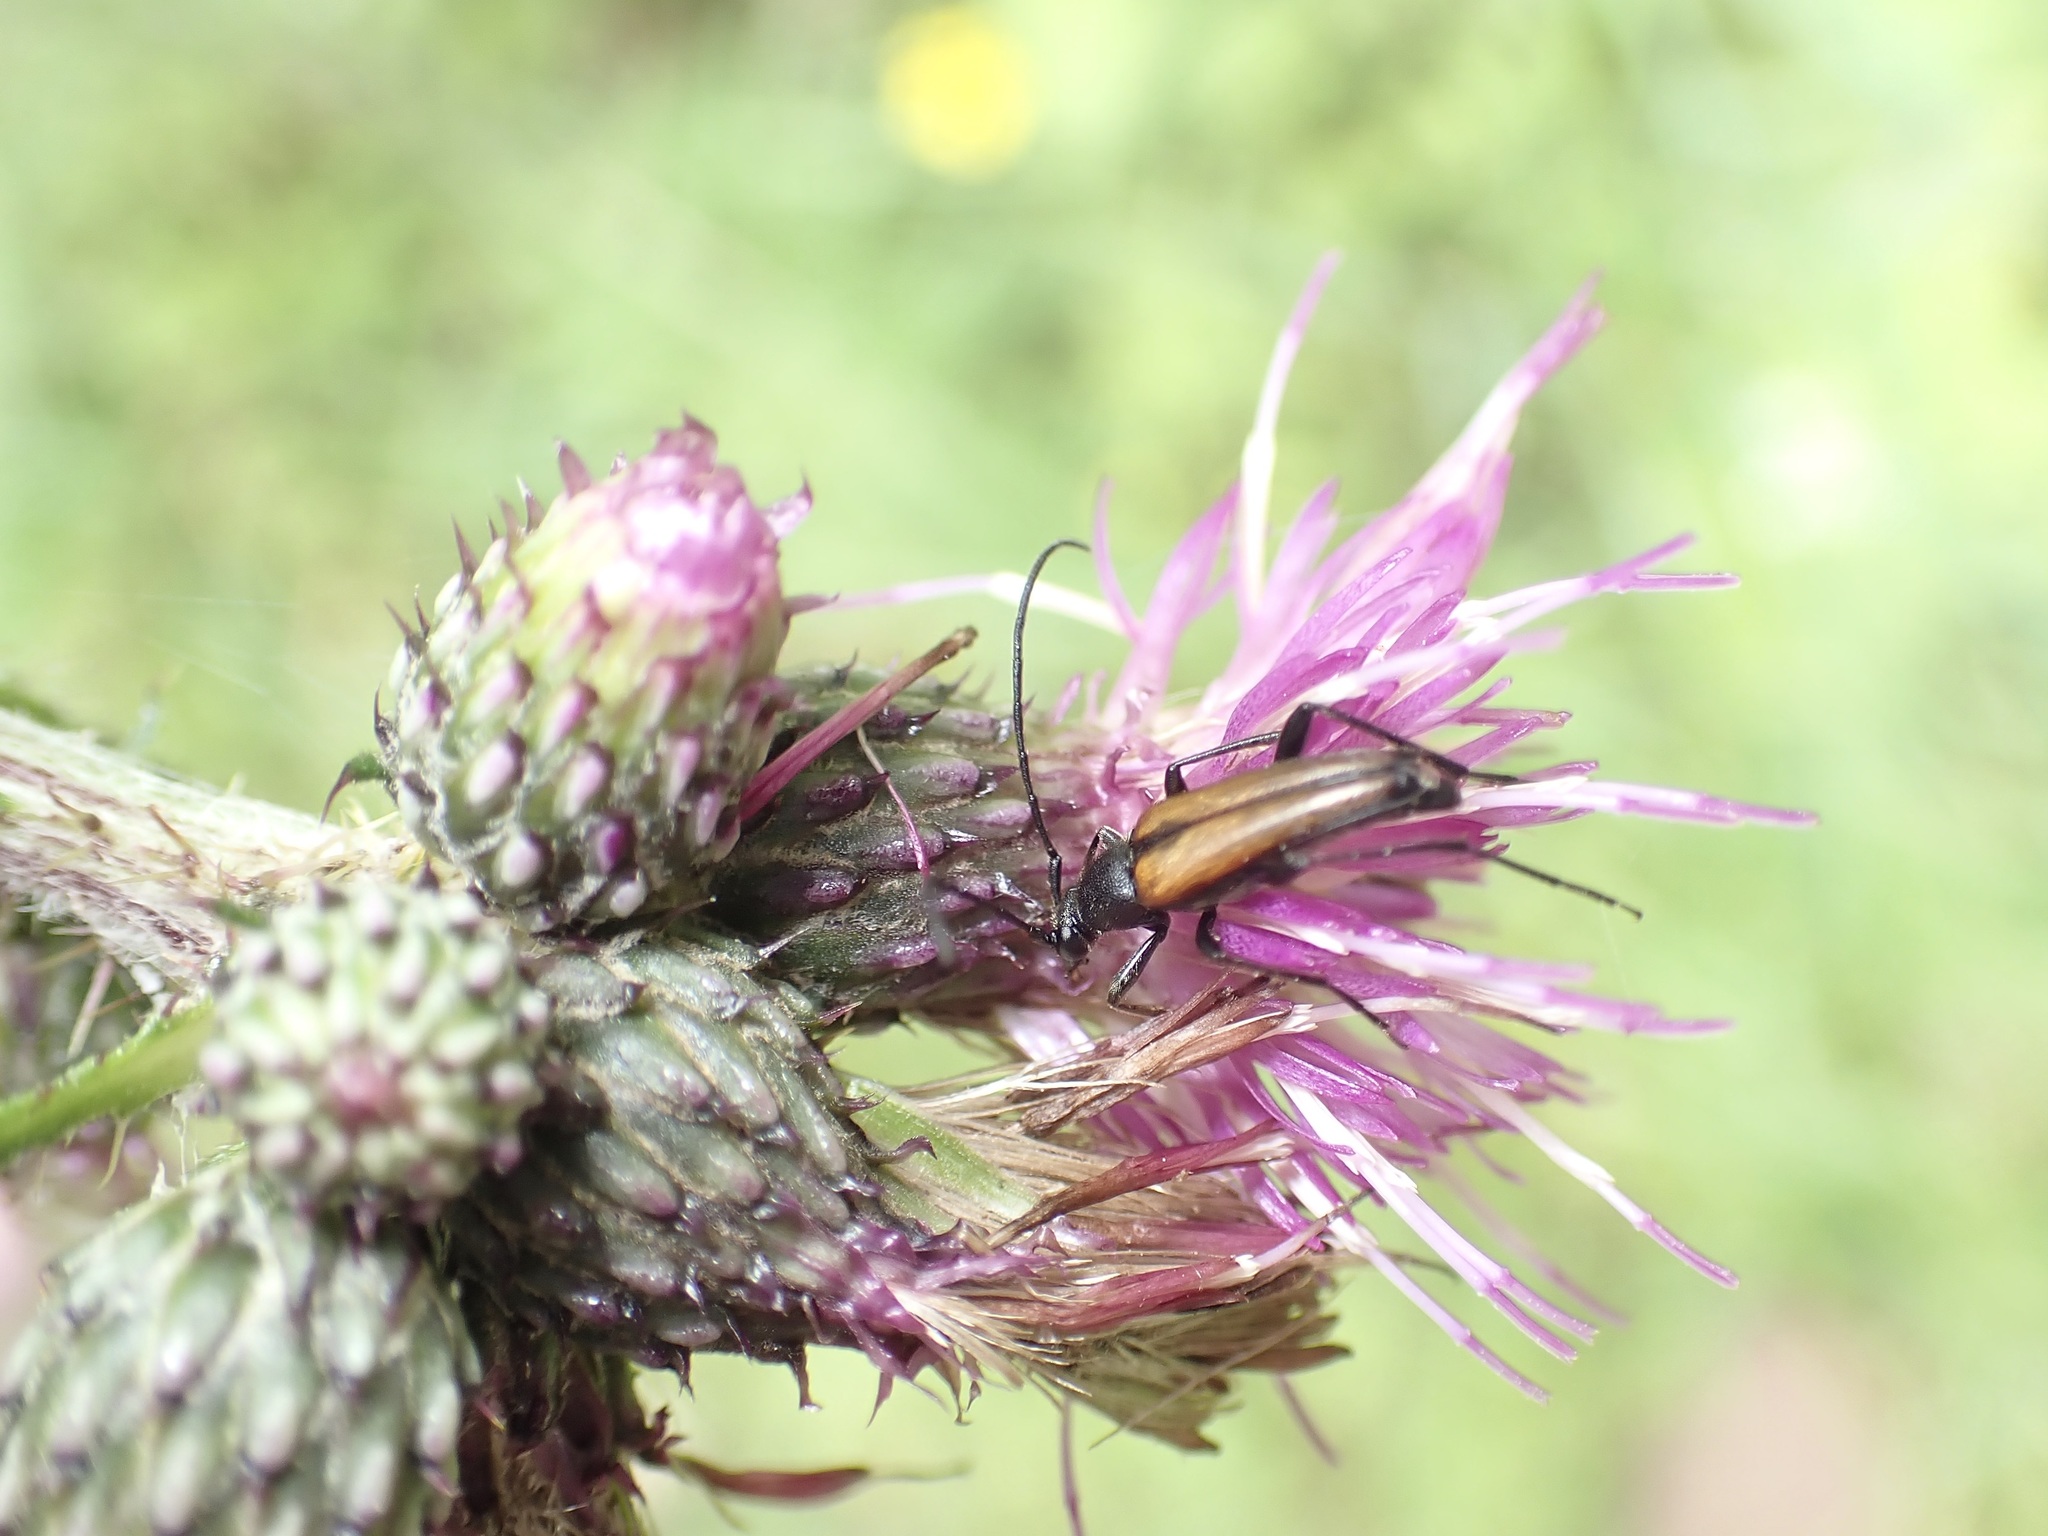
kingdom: Animalia
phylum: Arthropoda
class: Insecta
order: Coleoptera
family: Cerambycidae
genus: Stenurella
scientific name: Stenurella melanura
